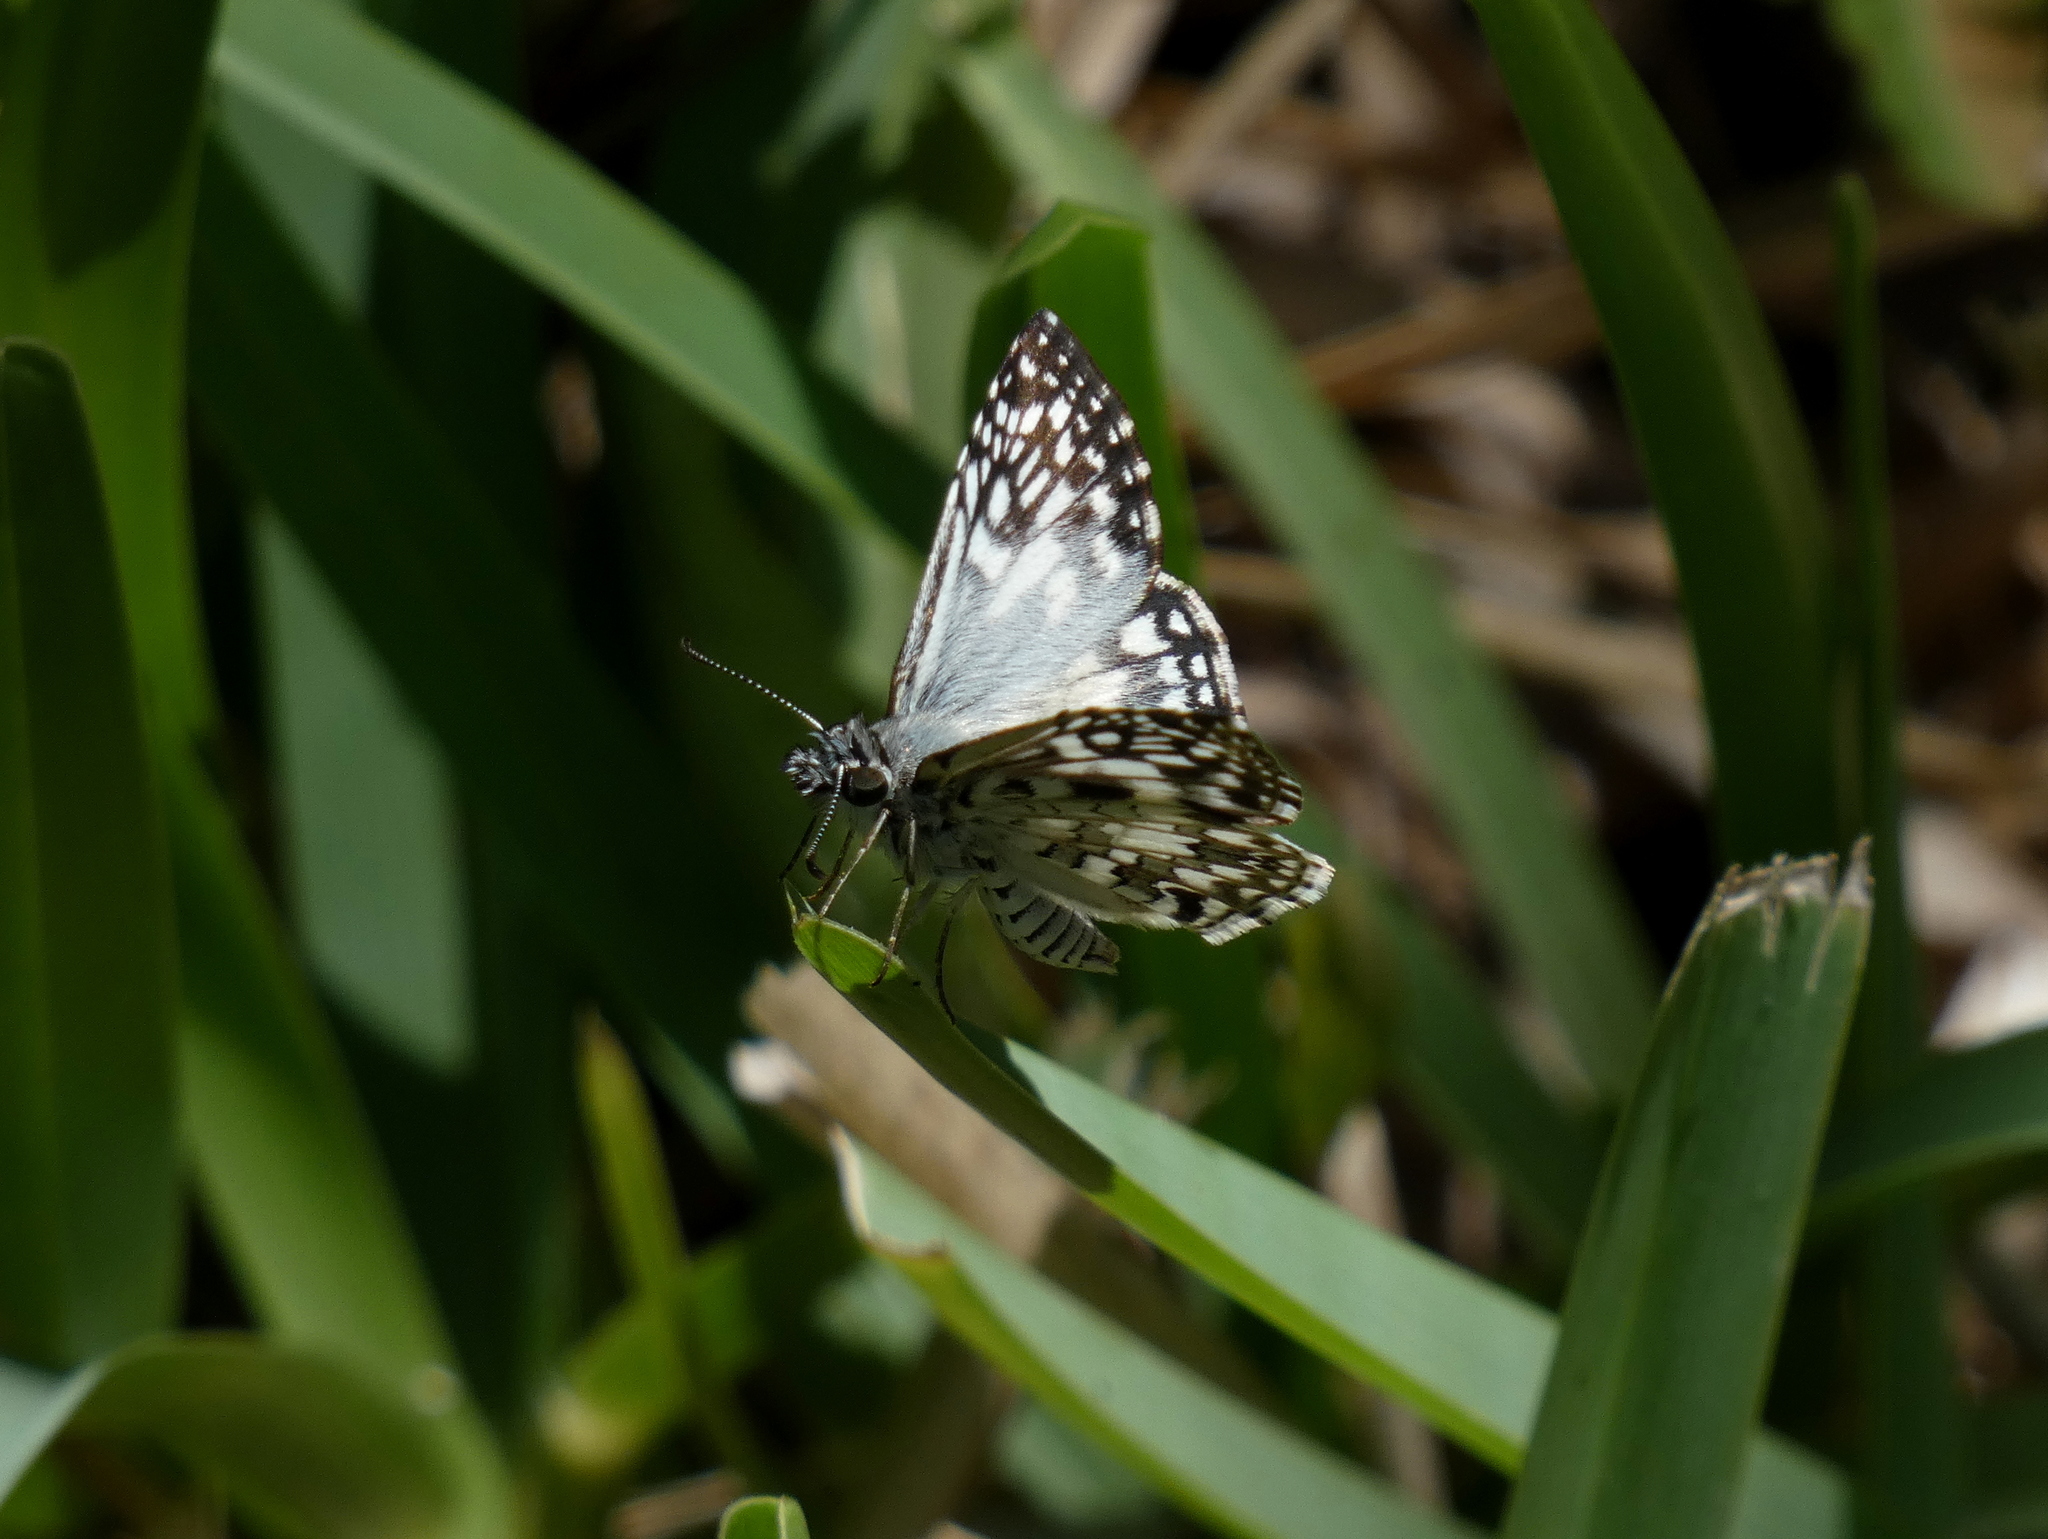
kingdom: Animalia
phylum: Arthropoda
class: Insecta
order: Lepidoptera
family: Hesperiidae
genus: Pyrgus
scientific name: Pyrgus oileus
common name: Tropical checkered-skipper
